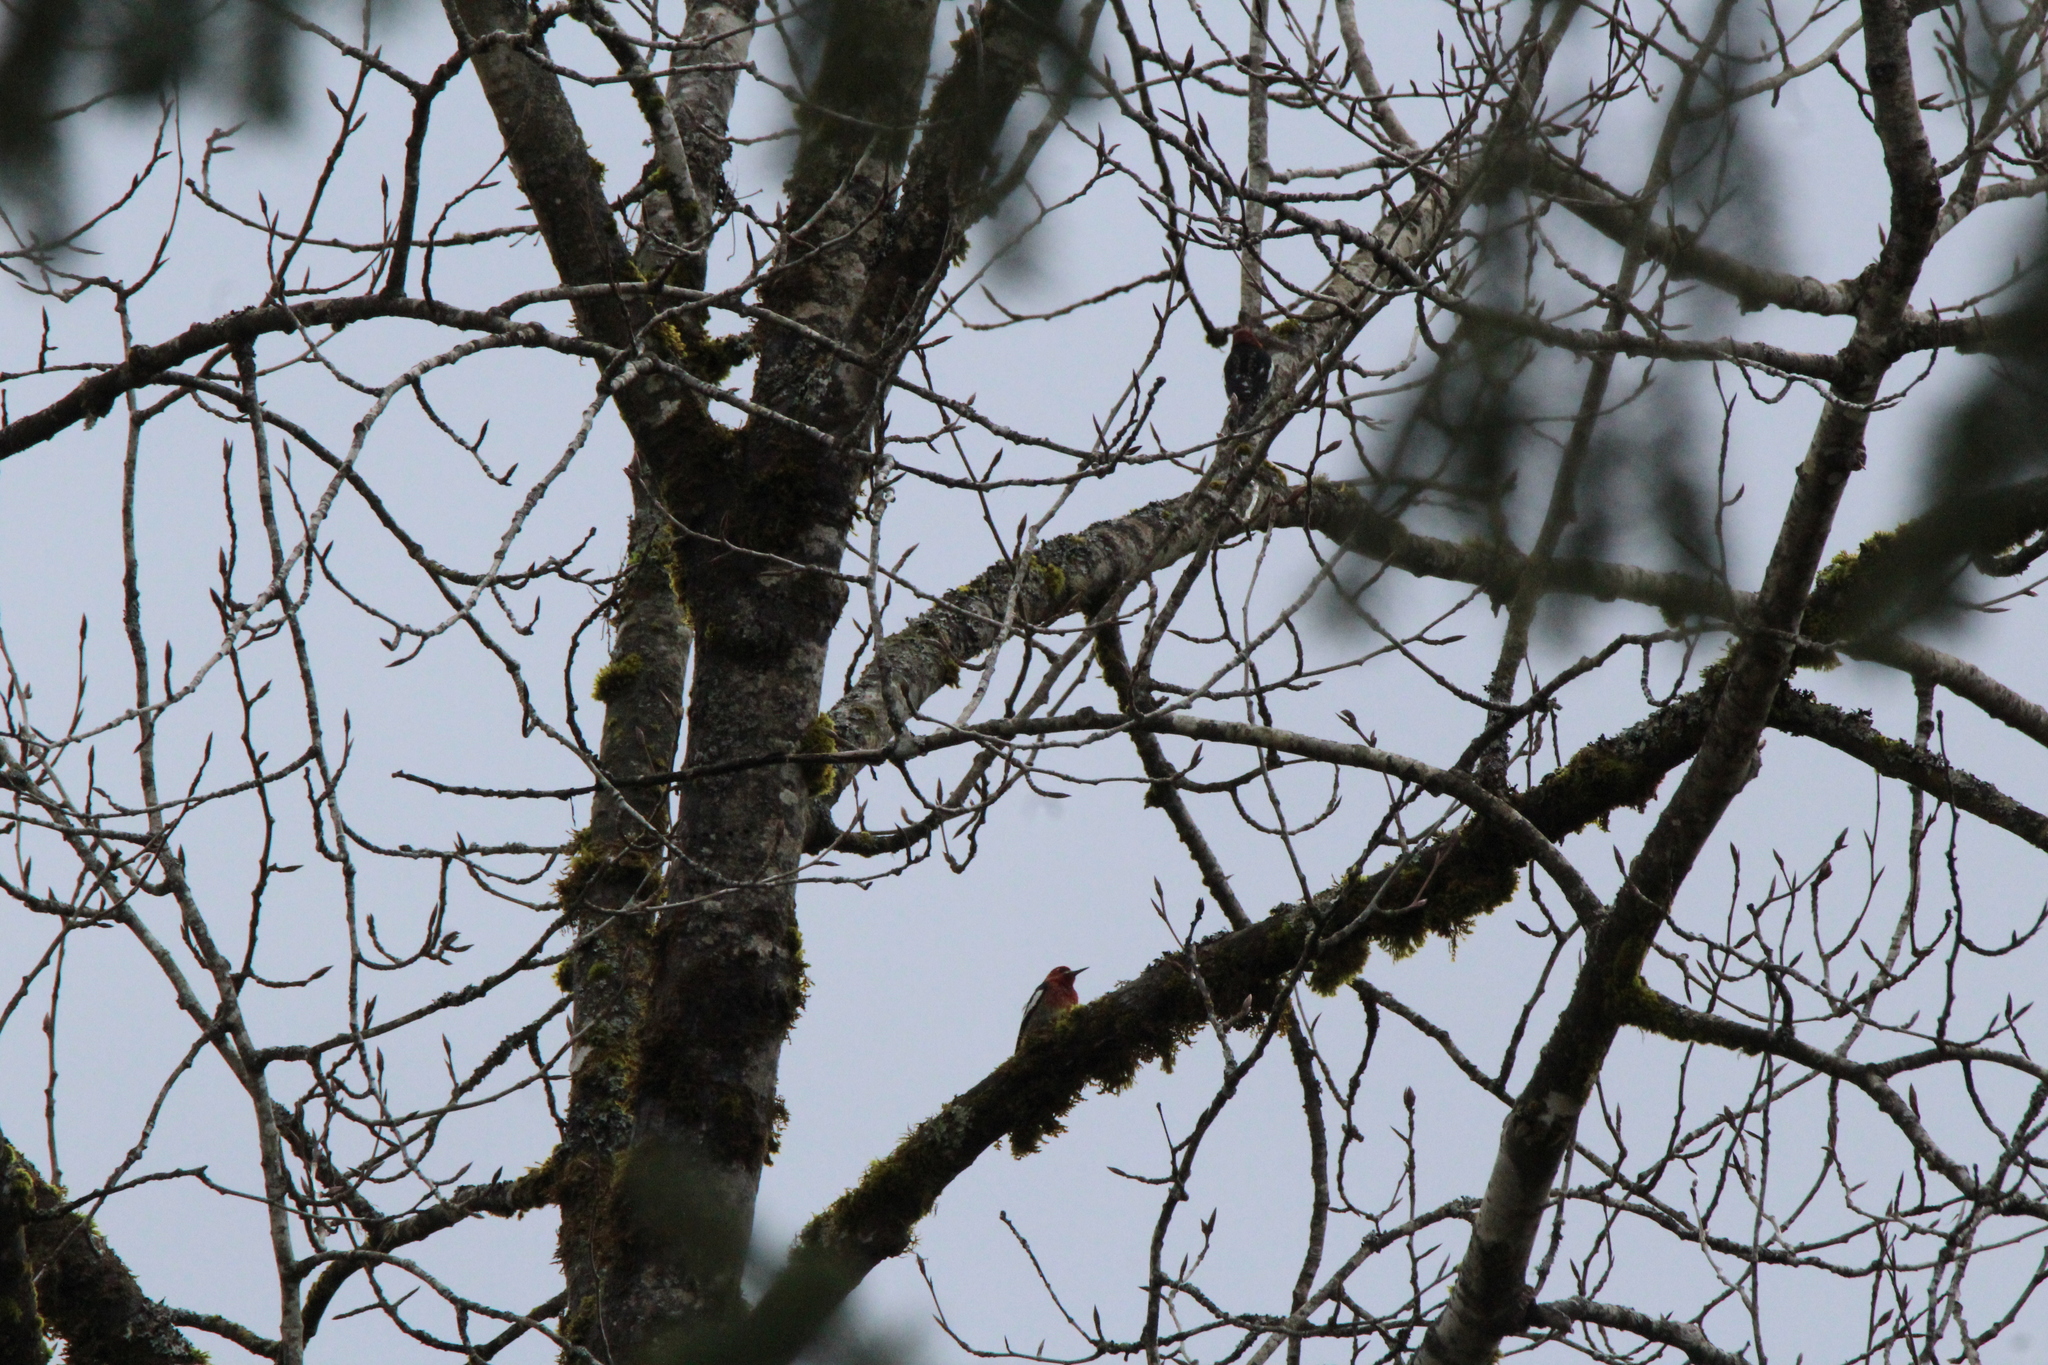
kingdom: Animalia
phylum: Chordata
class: Aves
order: Piciformes
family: Picidae
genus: Sphyrapicus
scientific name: Sphyrapicus ruber
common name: Red-breasted sapsucker
